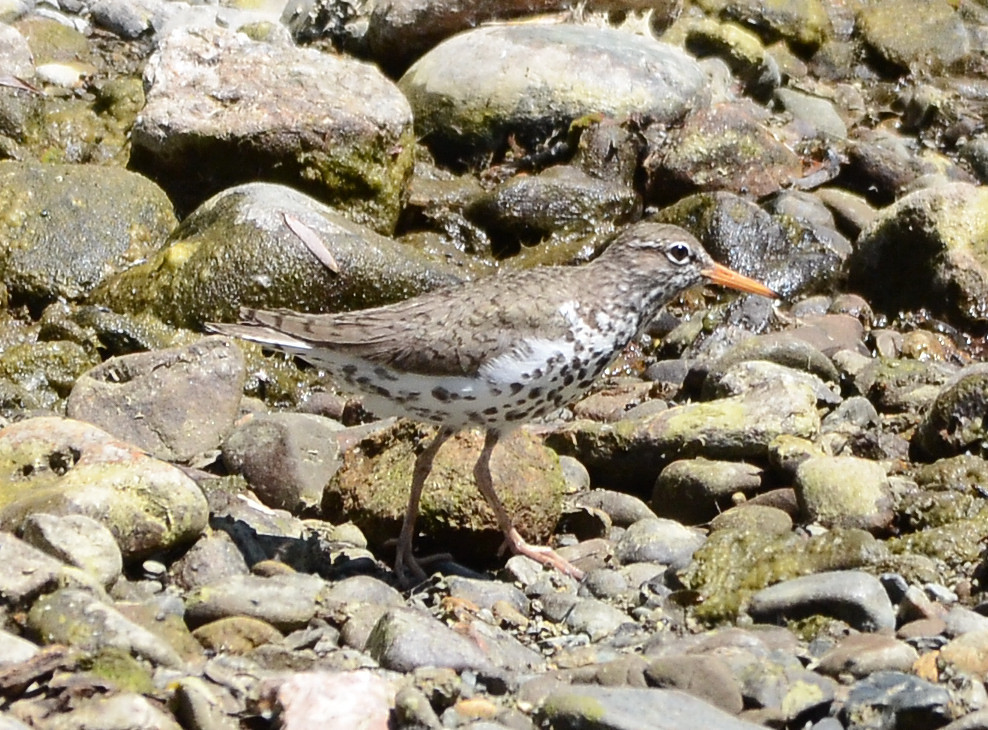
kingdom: Animalia
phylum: Chordata
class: Aves
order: Charadriiformes
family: Scolopacidae
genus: Actitis
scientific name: Actitis macularius
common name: Spotted sandpiper
